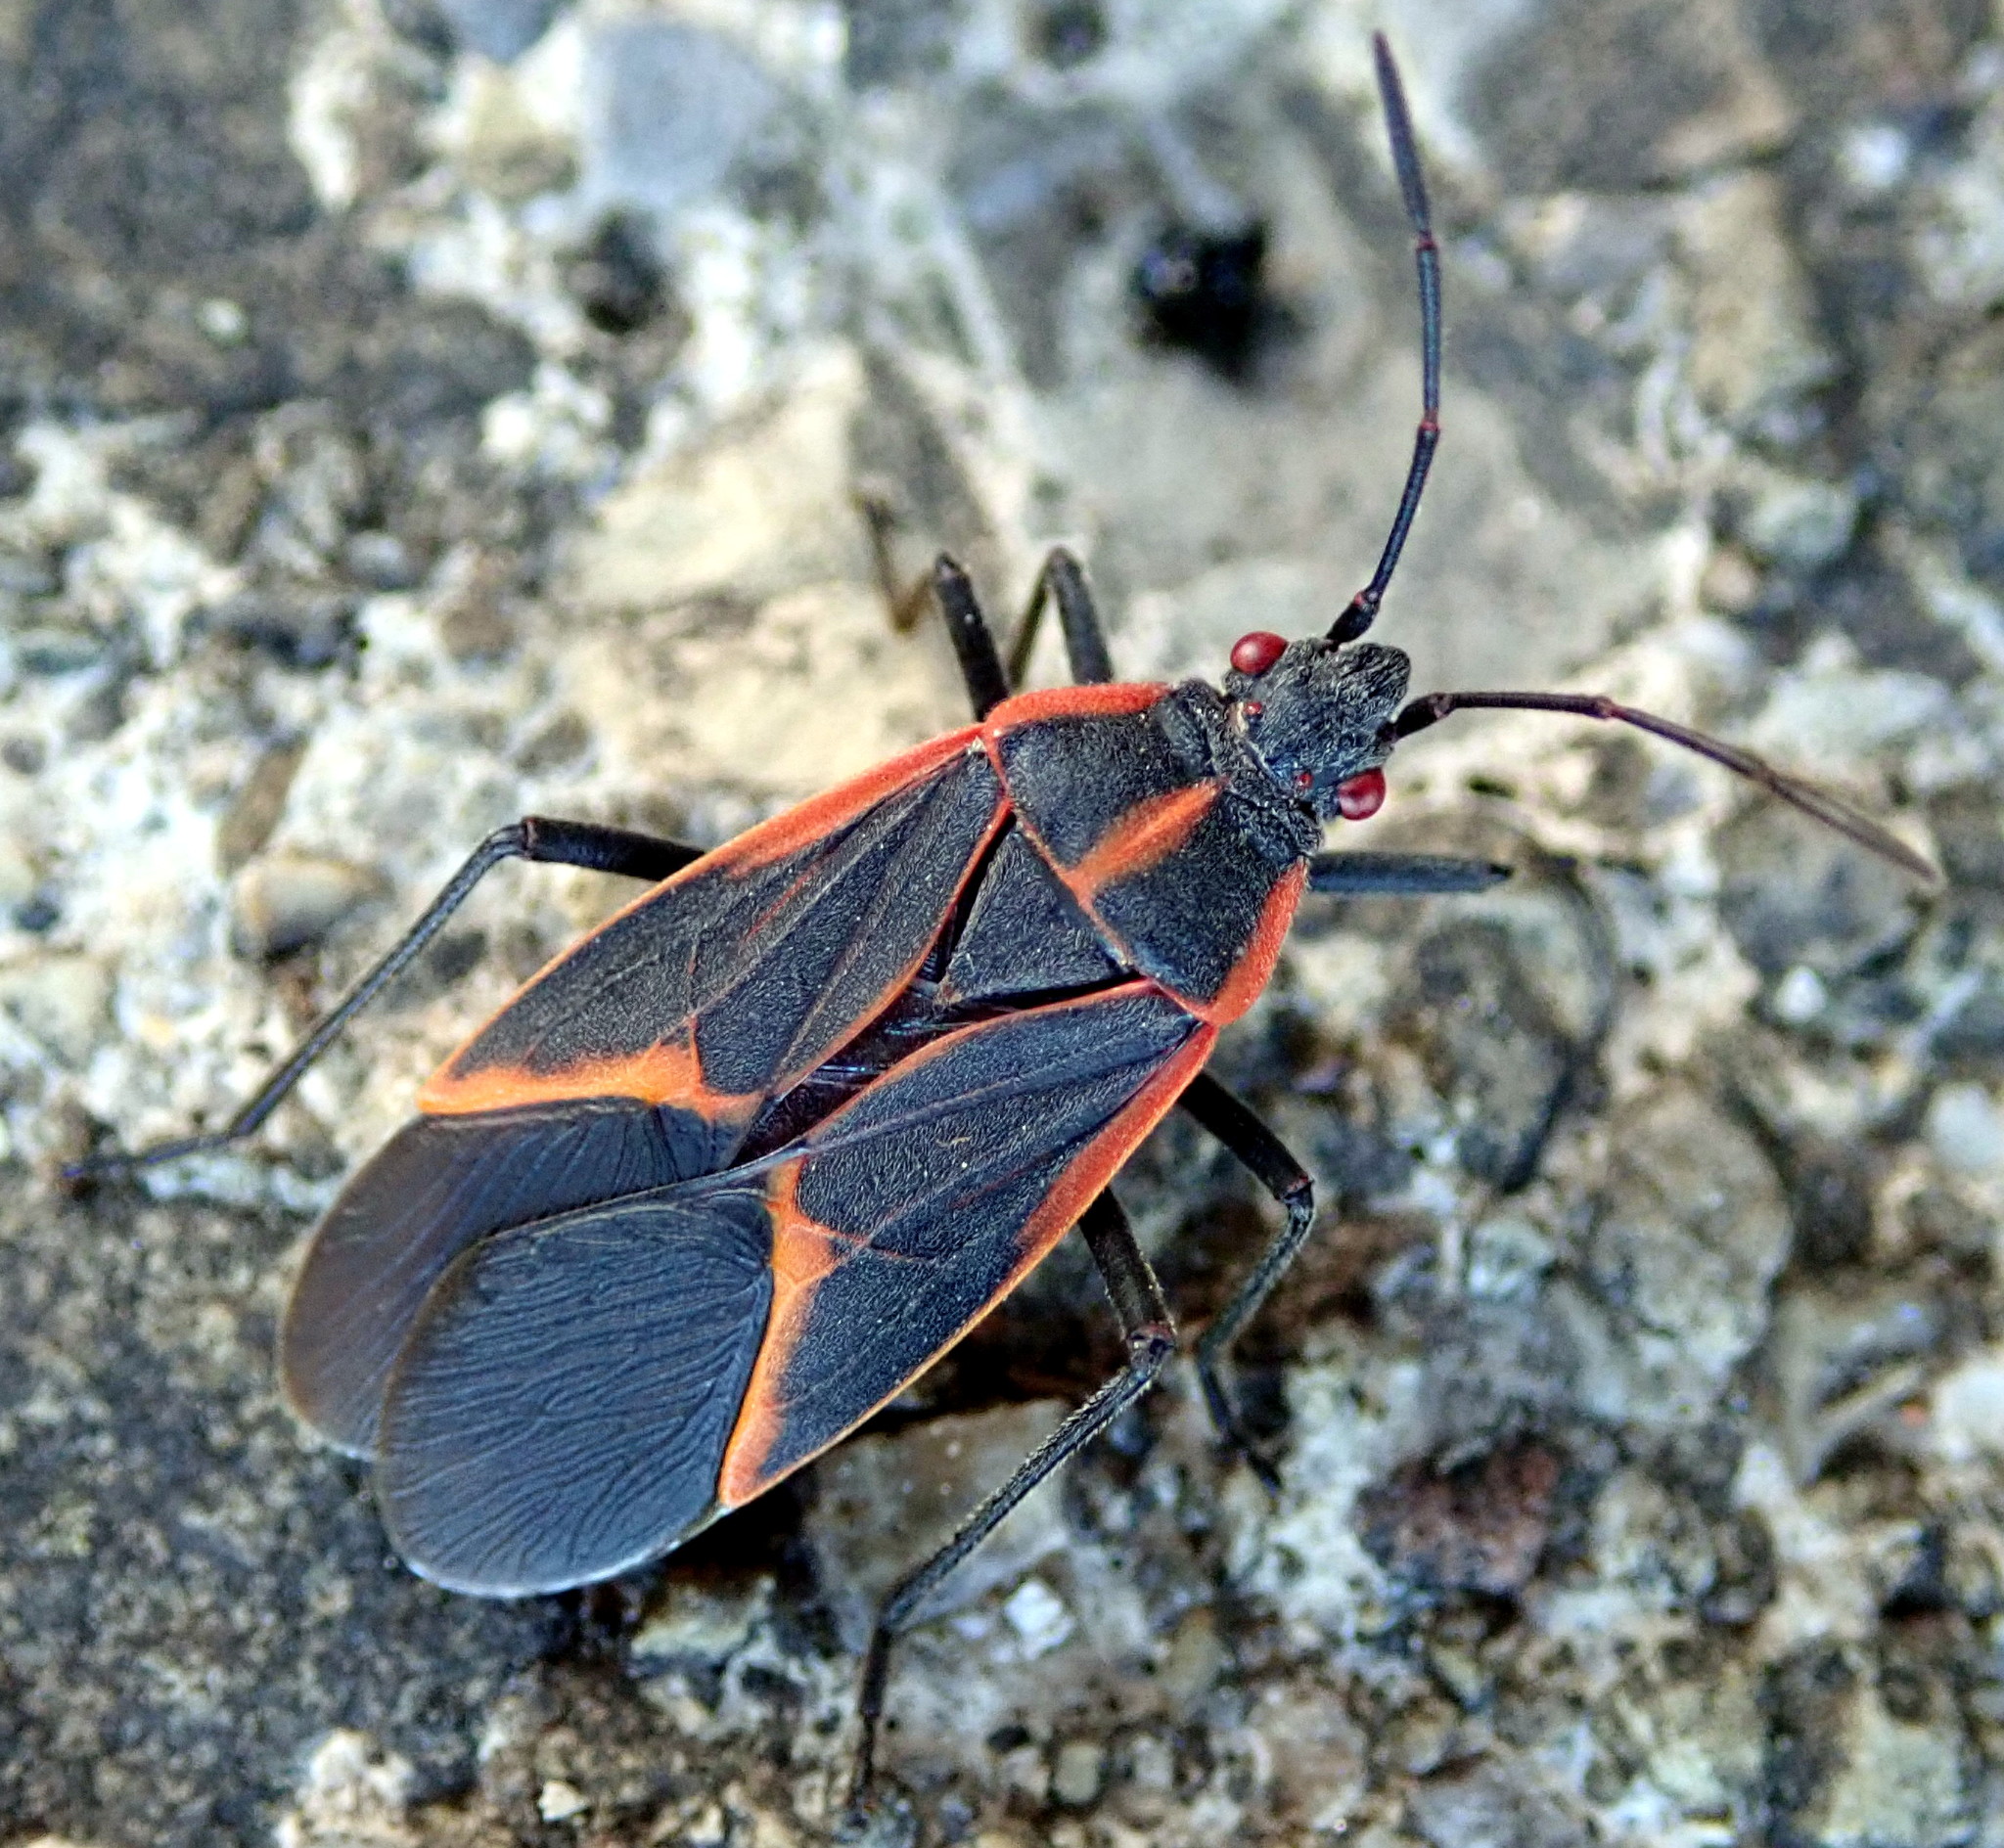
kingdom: Animalia
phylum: Arthropoda
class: Insecta
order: Hemiptera
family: Rhopalidae
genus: Boisea
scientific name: Boisea trivittata
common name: Boxelder bug
